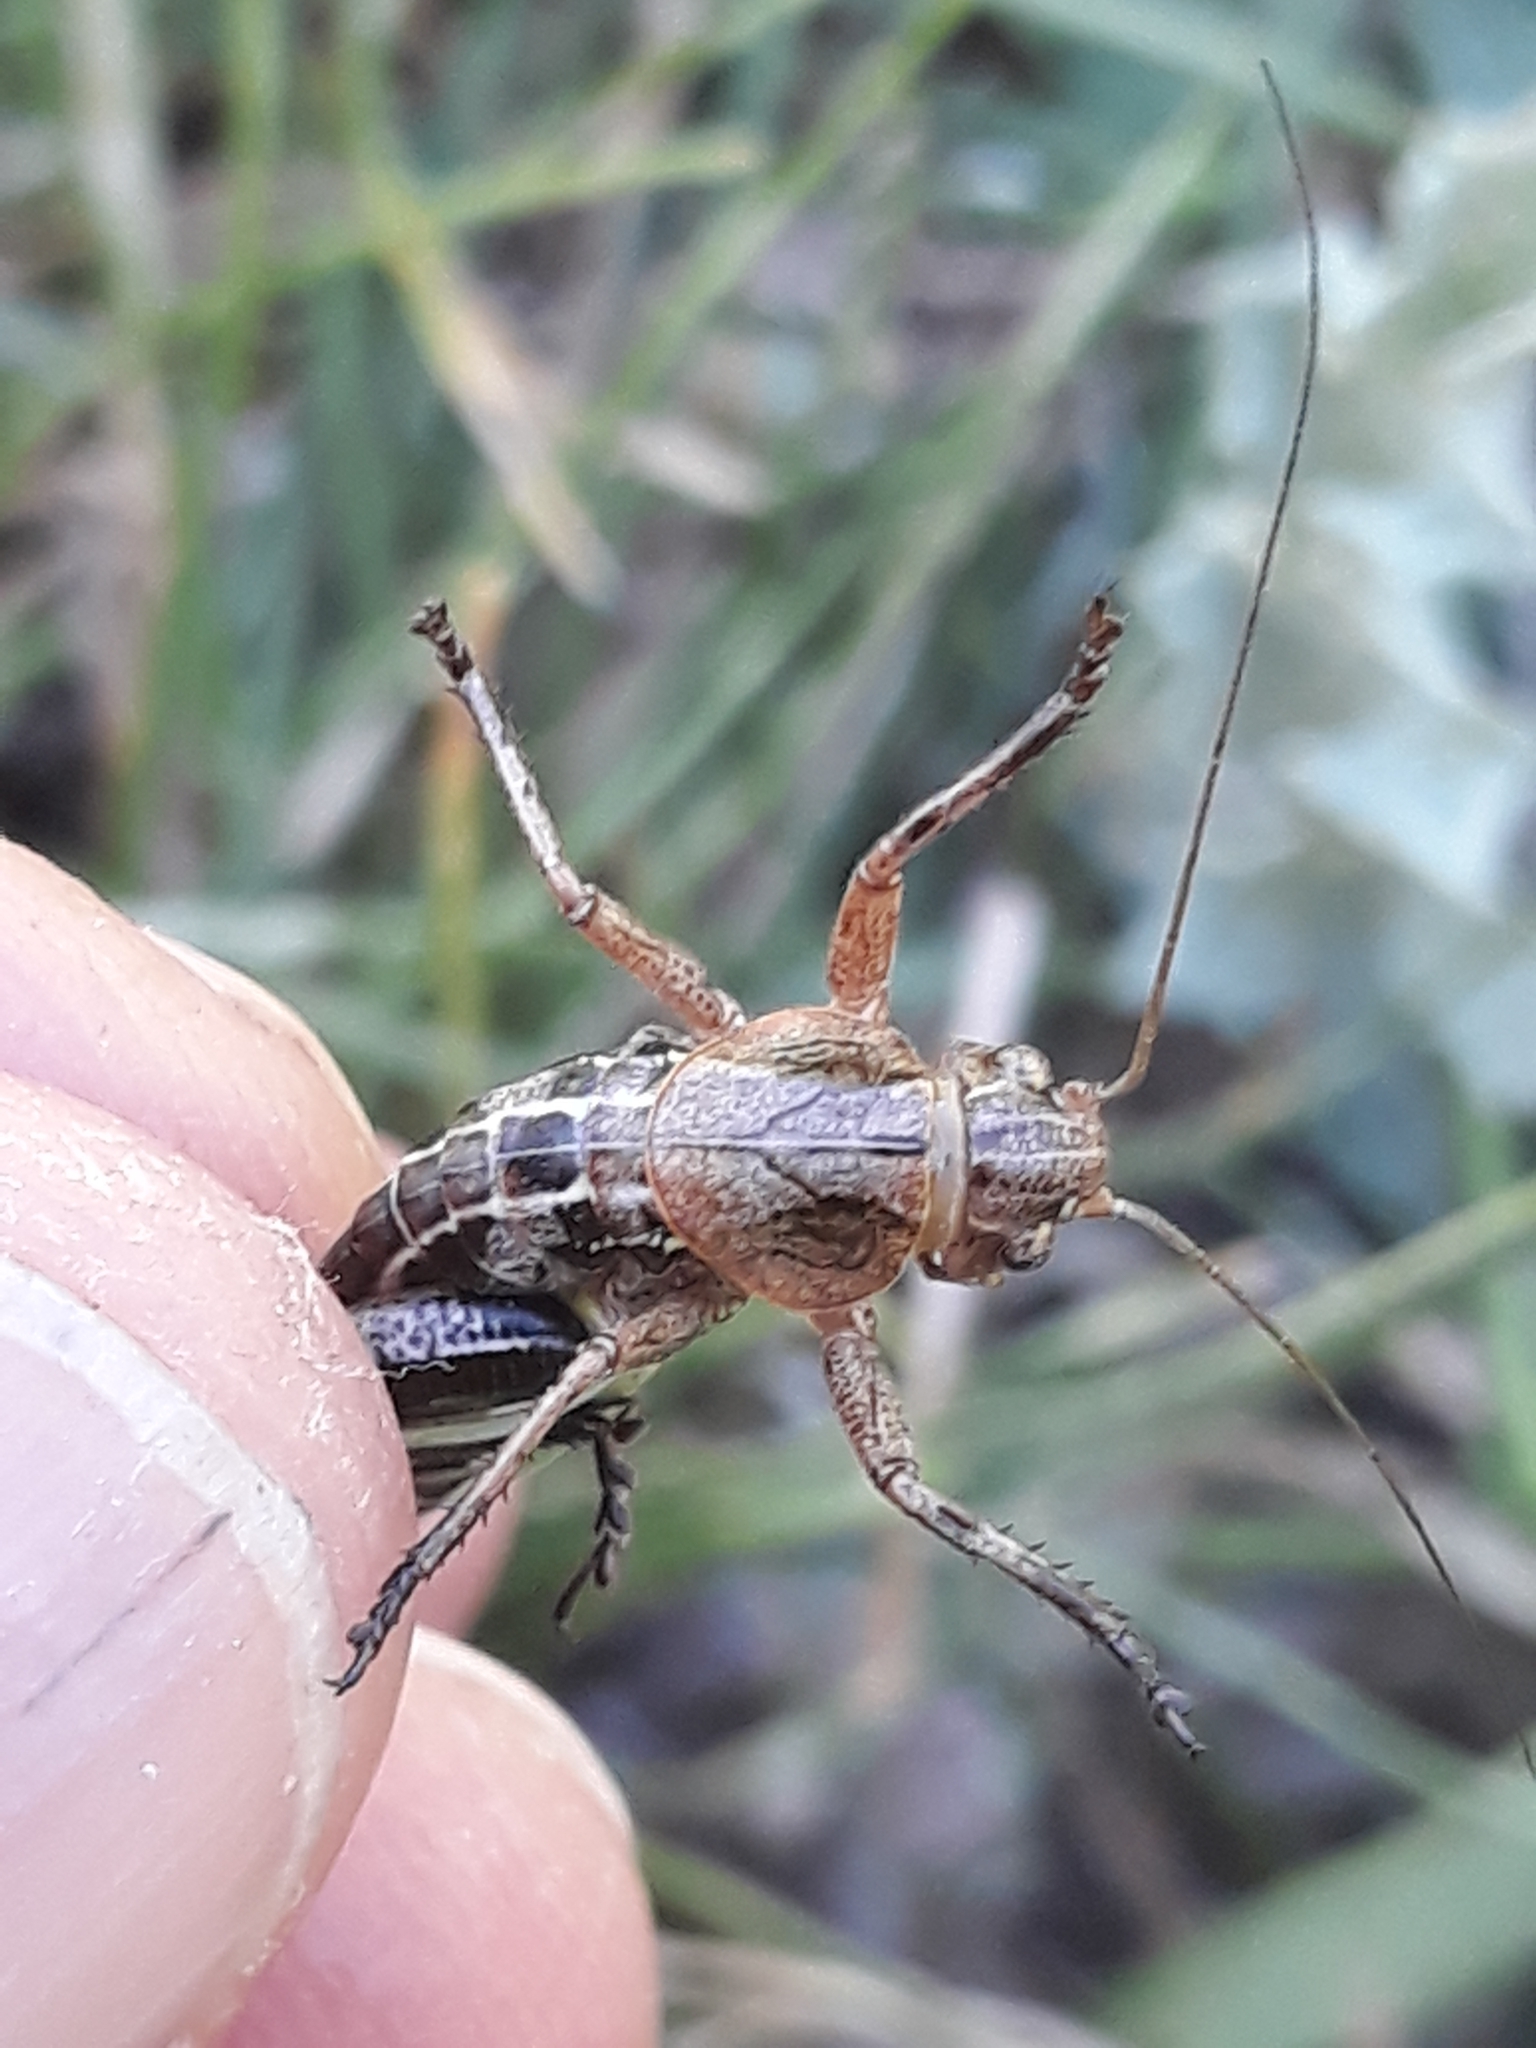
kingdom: Animalia
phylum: Arthropoda
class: Insecta
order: Orthoptera
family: Tettigoniidae
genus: Decticus
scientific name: Decticus albifrons
